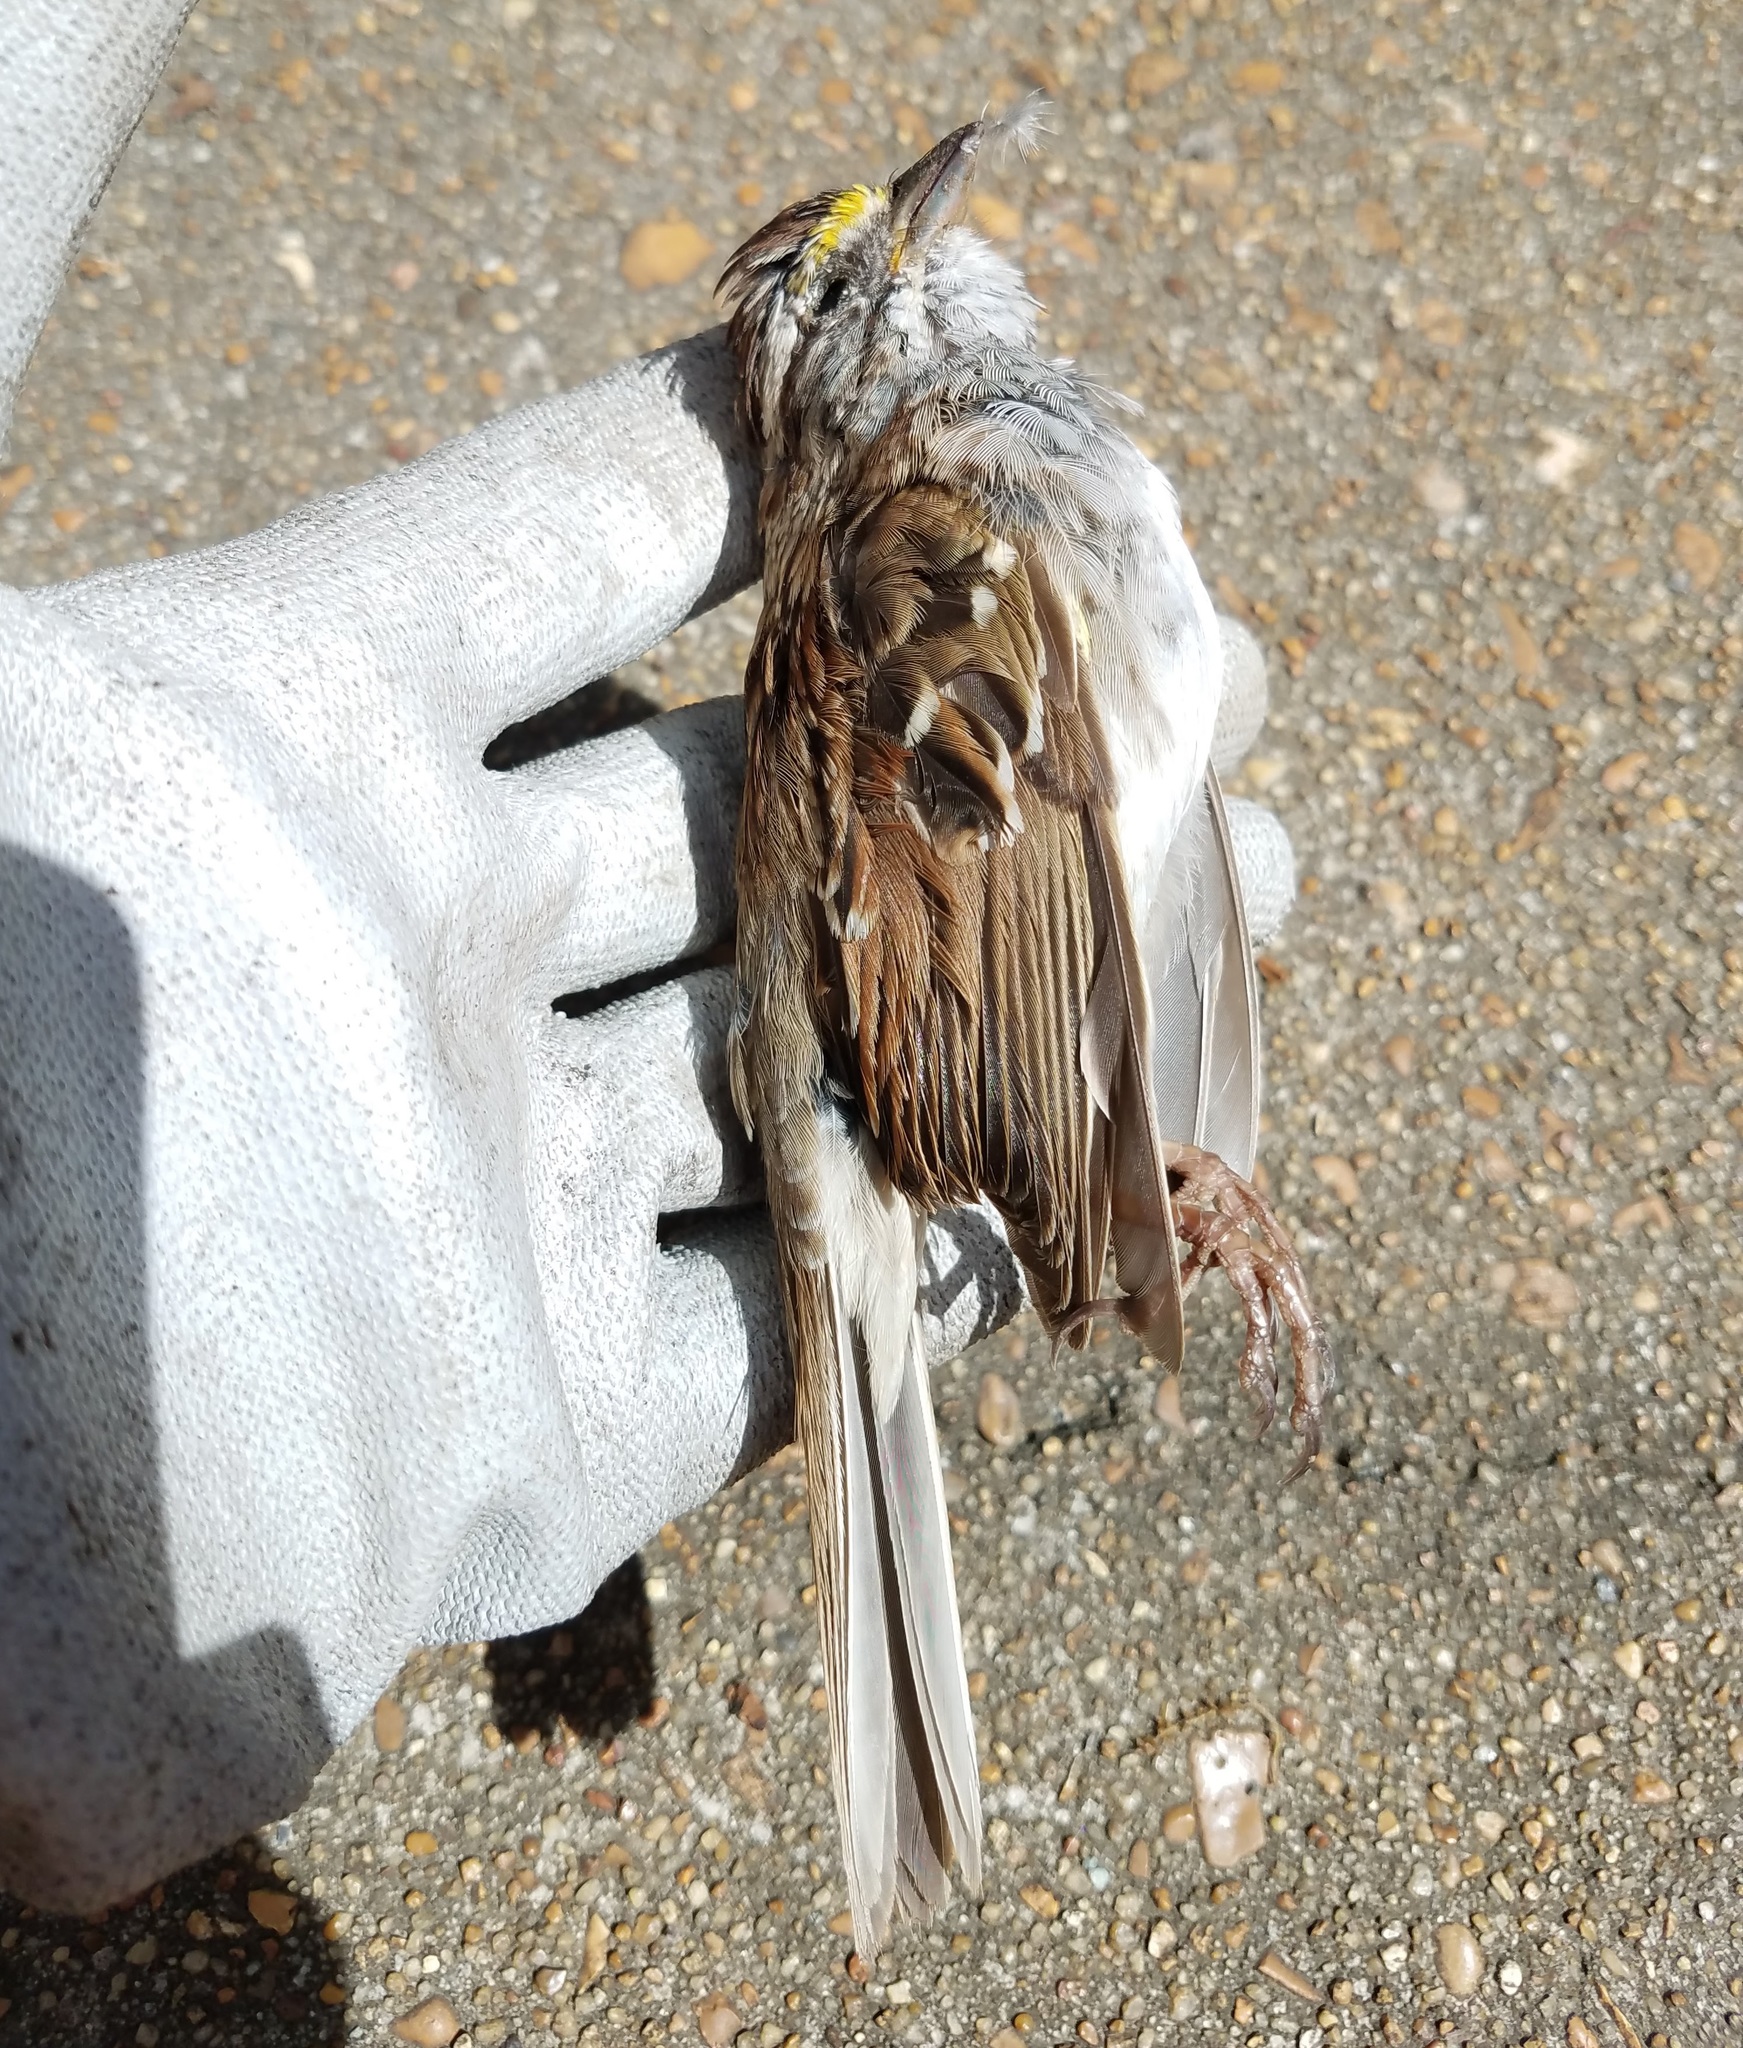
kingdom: Animalia
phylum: Chordata
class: Aves
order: Passeriformes
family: Passerellidae
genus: Zonotrichia
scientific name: Zonotrichia albicollis
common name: White-throated sparrow
